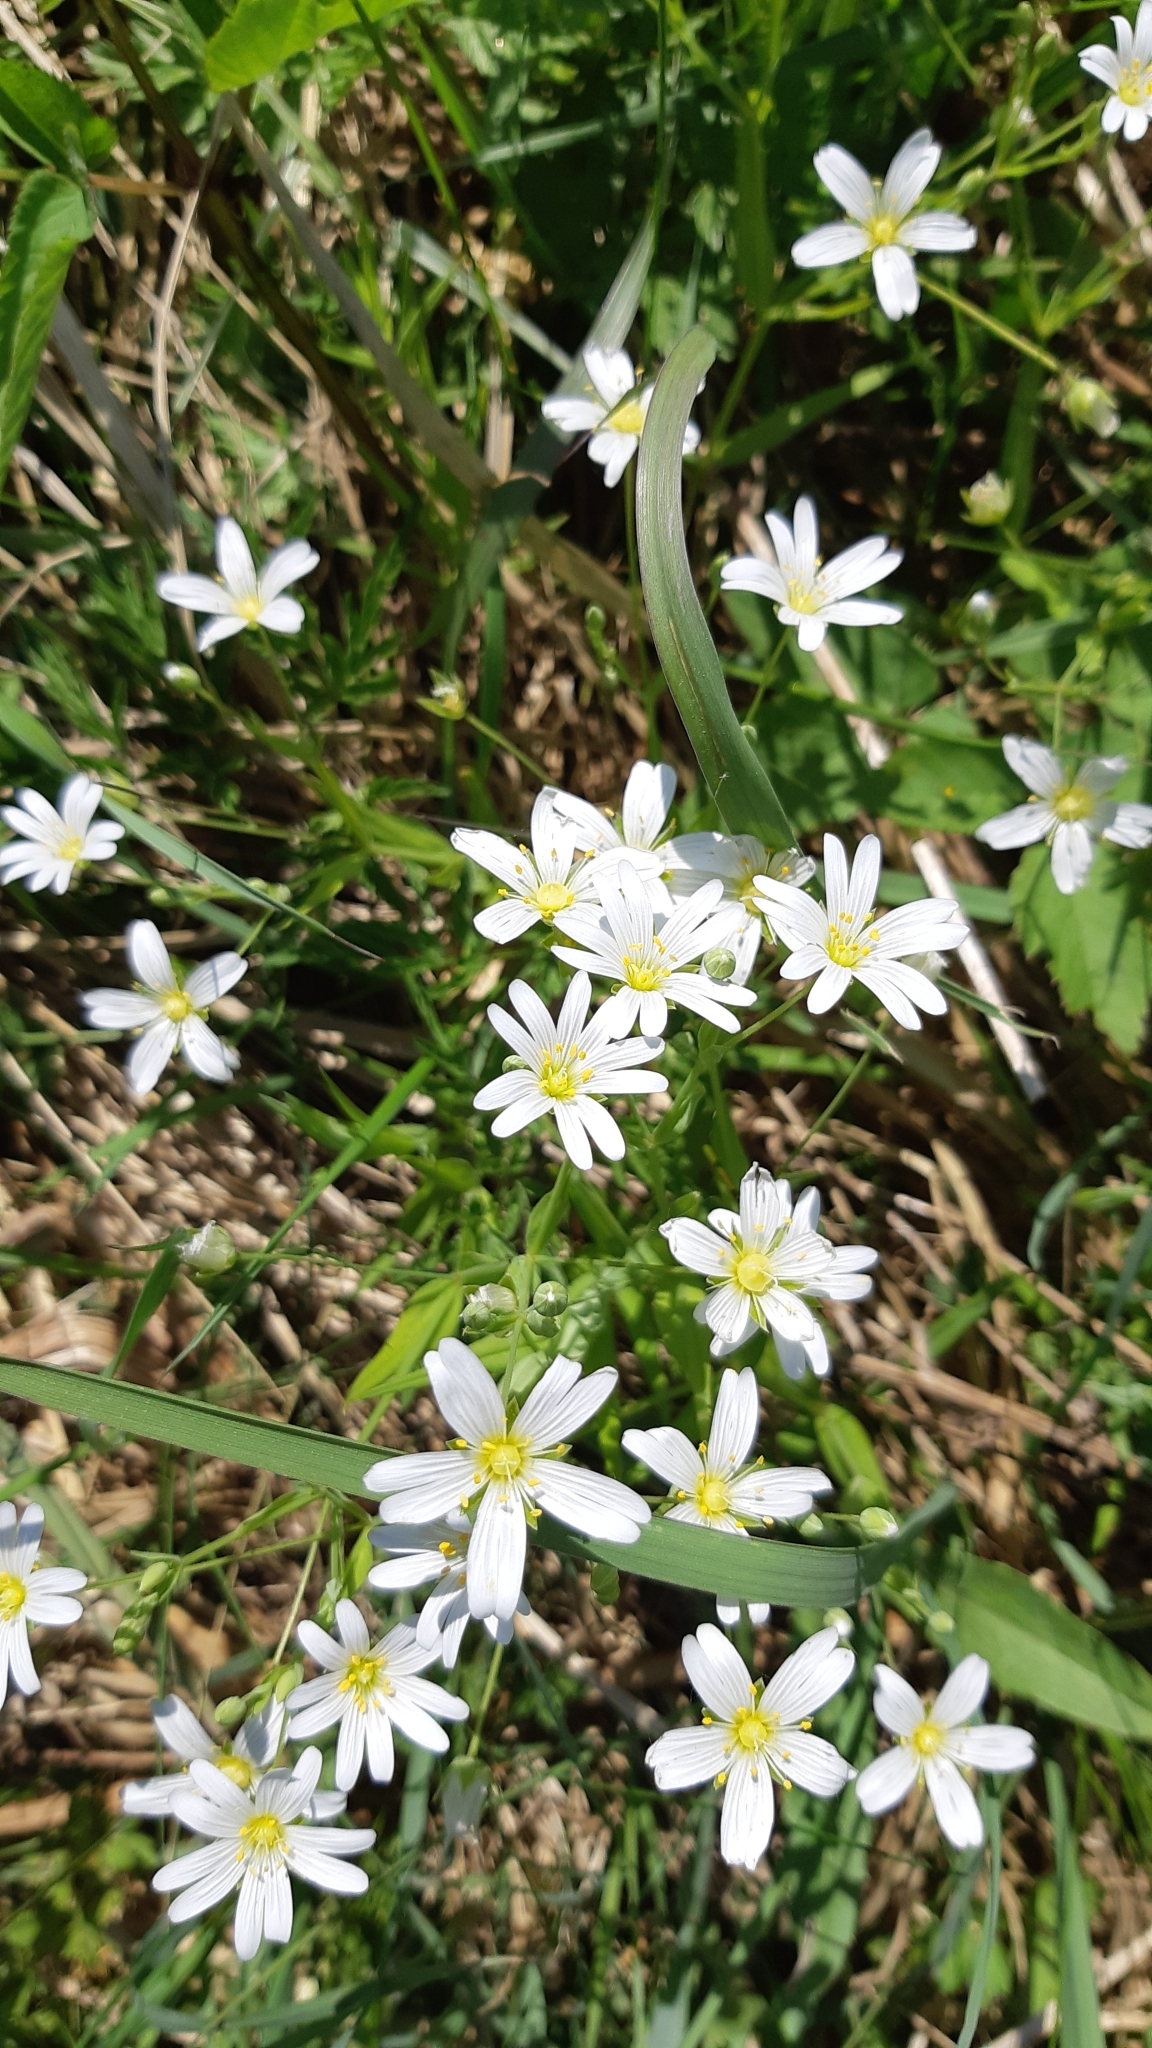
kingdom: Plantae
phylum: Tracheophyta
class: Magnoliopsida
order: Caryophyllales
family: Caryophyllaceae
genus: Rabelera
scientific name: Rabelera holostea
